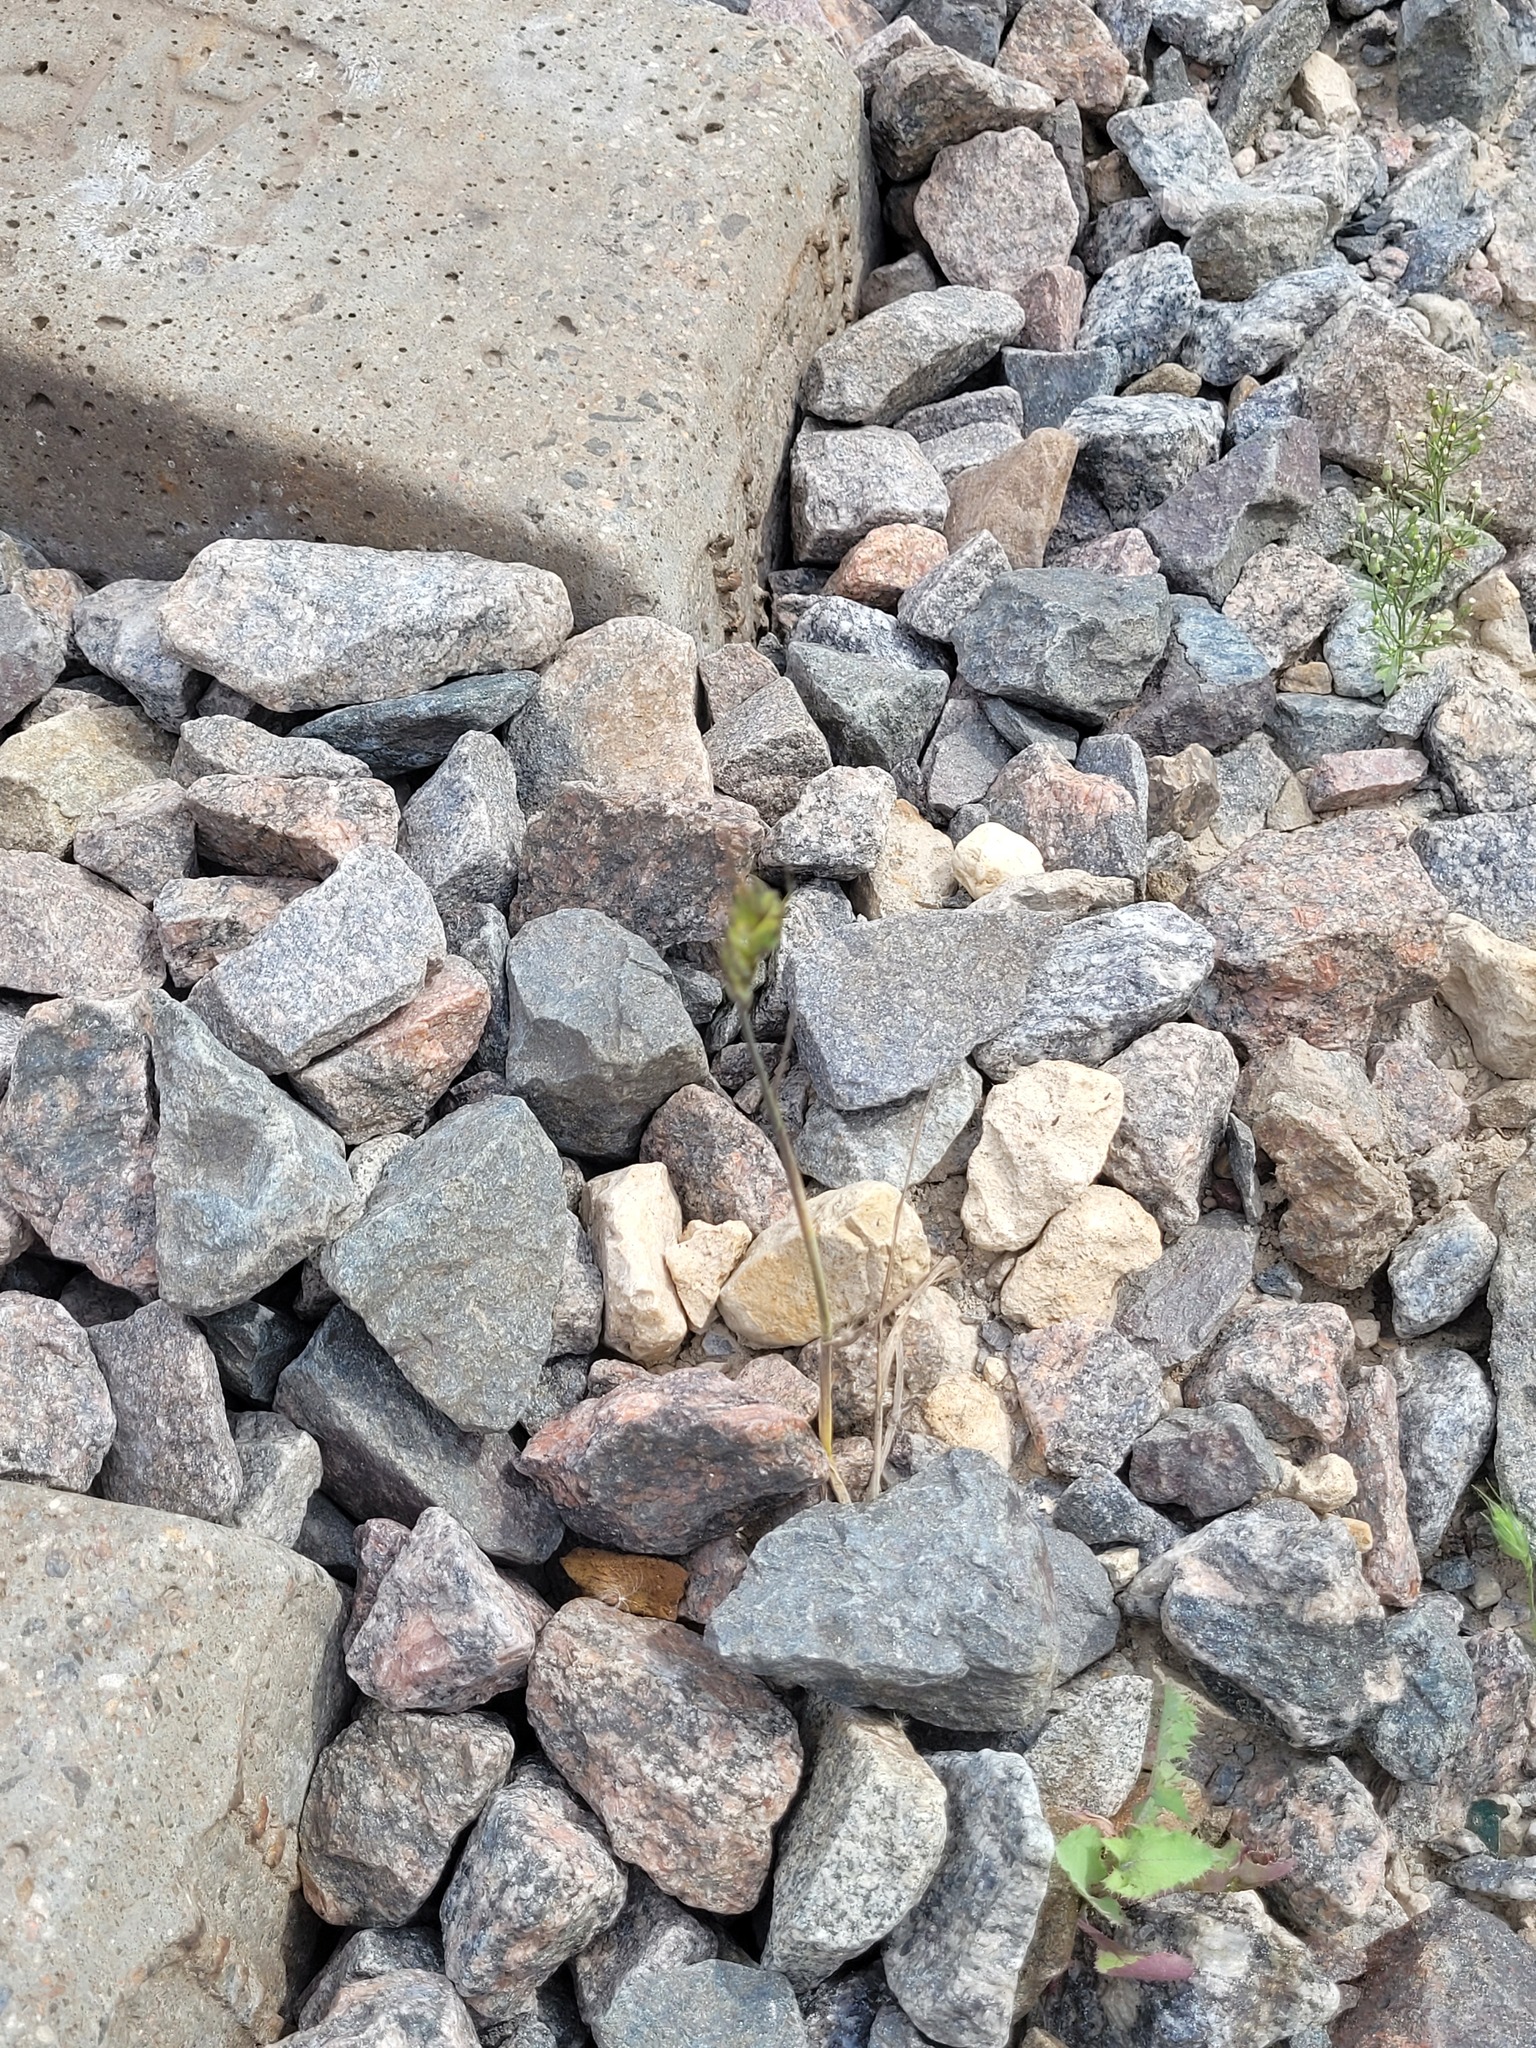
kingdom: Plantae
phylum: Tracheophyta
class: Liliopsida
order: Poales
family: Poaceae
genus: Triticum
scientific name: Triticum aestivum
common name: Common wheat
